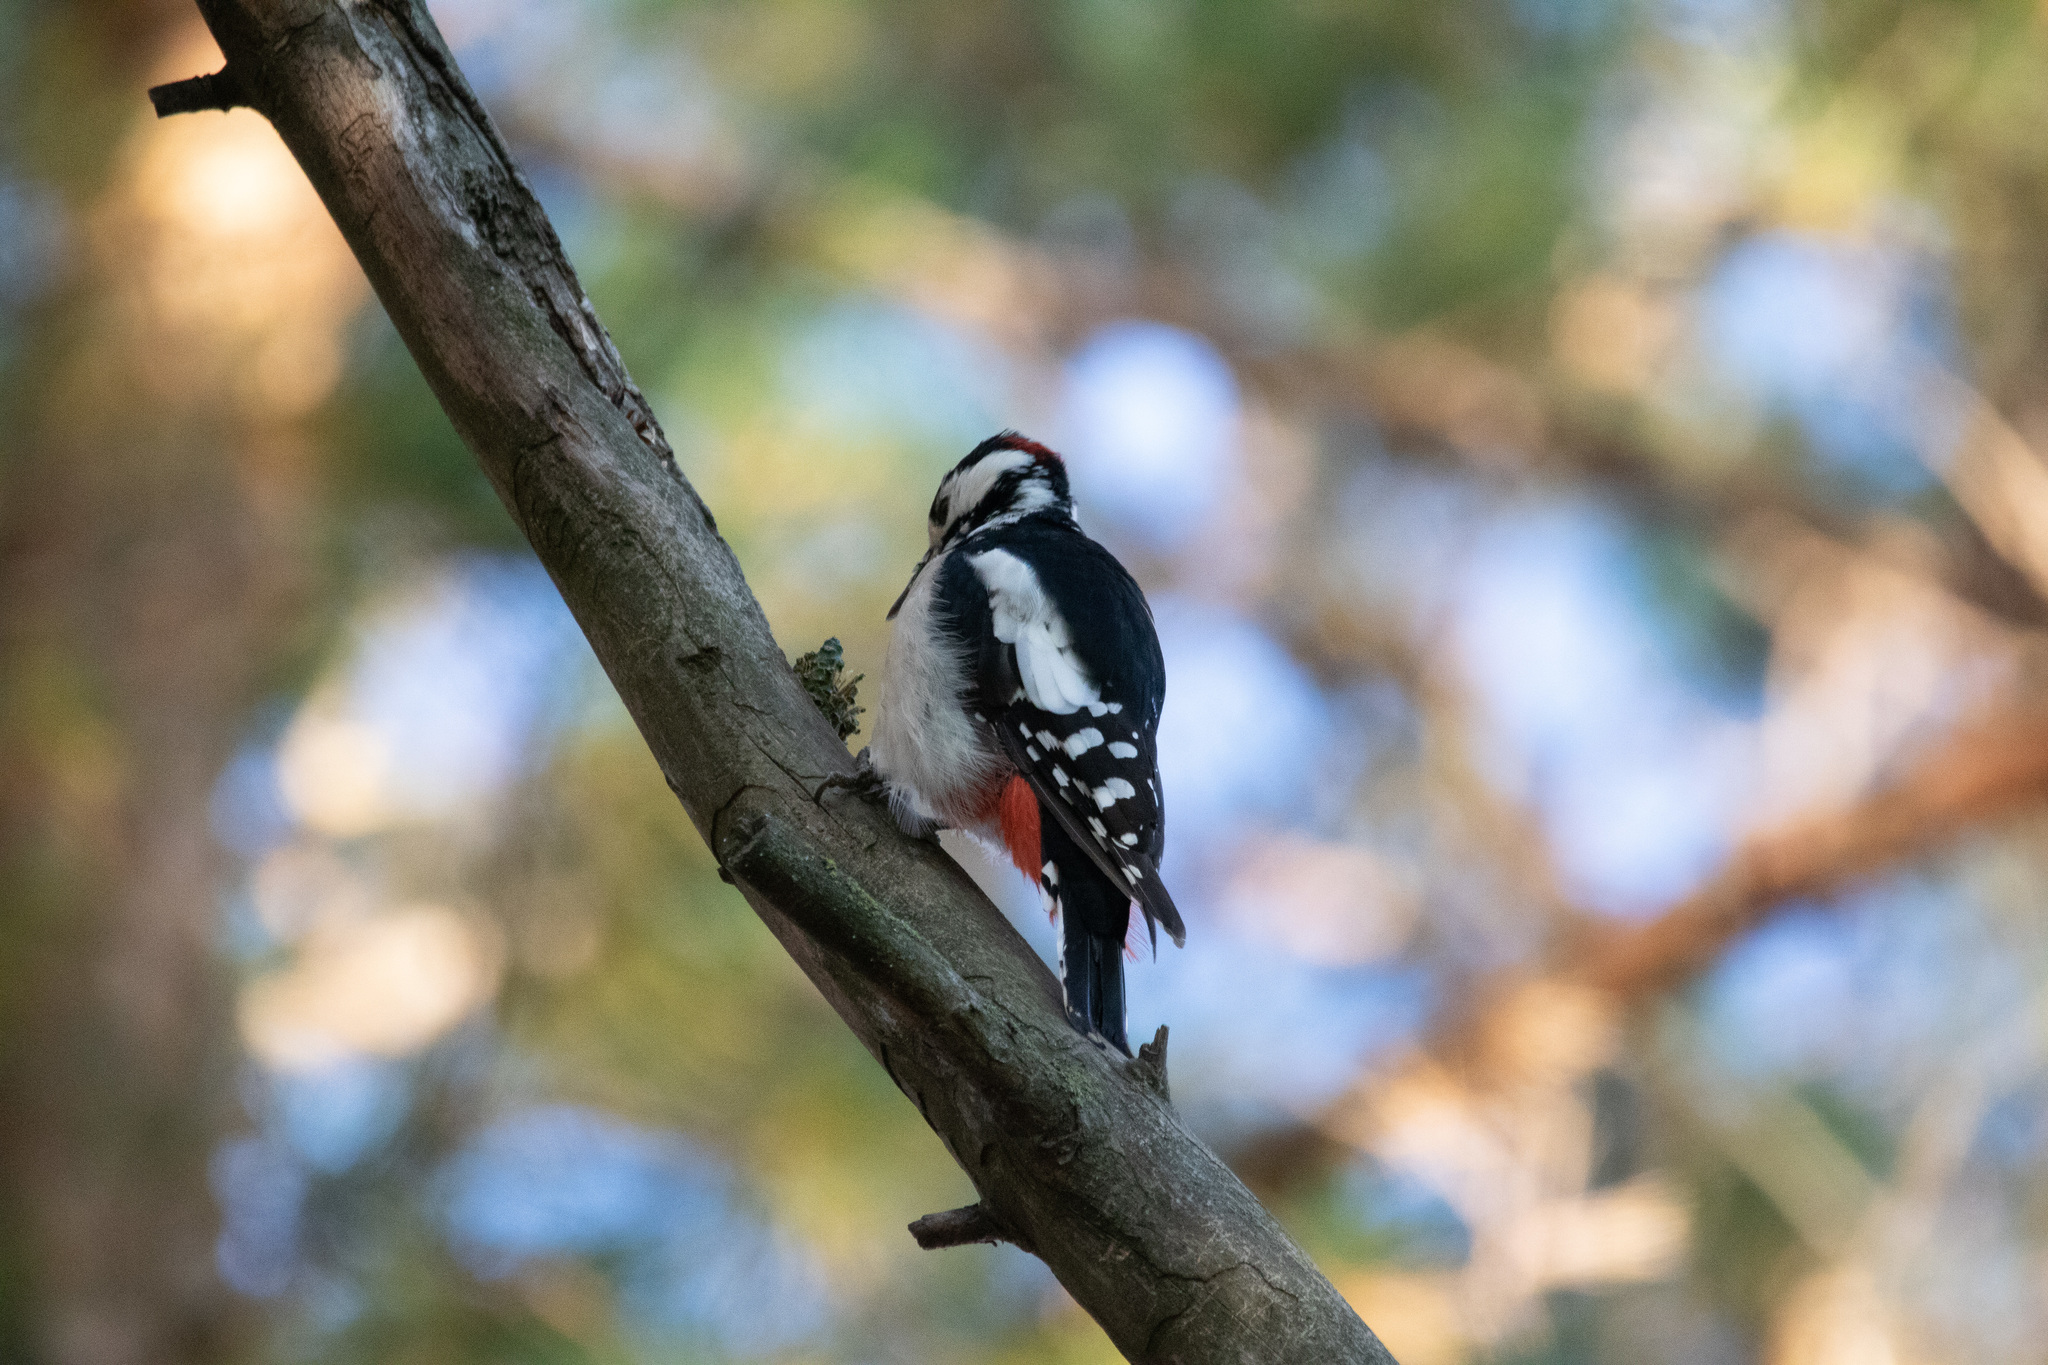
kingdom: Animalia
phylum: Chordata
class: Aves
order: Piciformes
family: Picidae
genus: Dendrocopos
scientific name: Dendrocopos major
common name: Great spotted woodpecker
